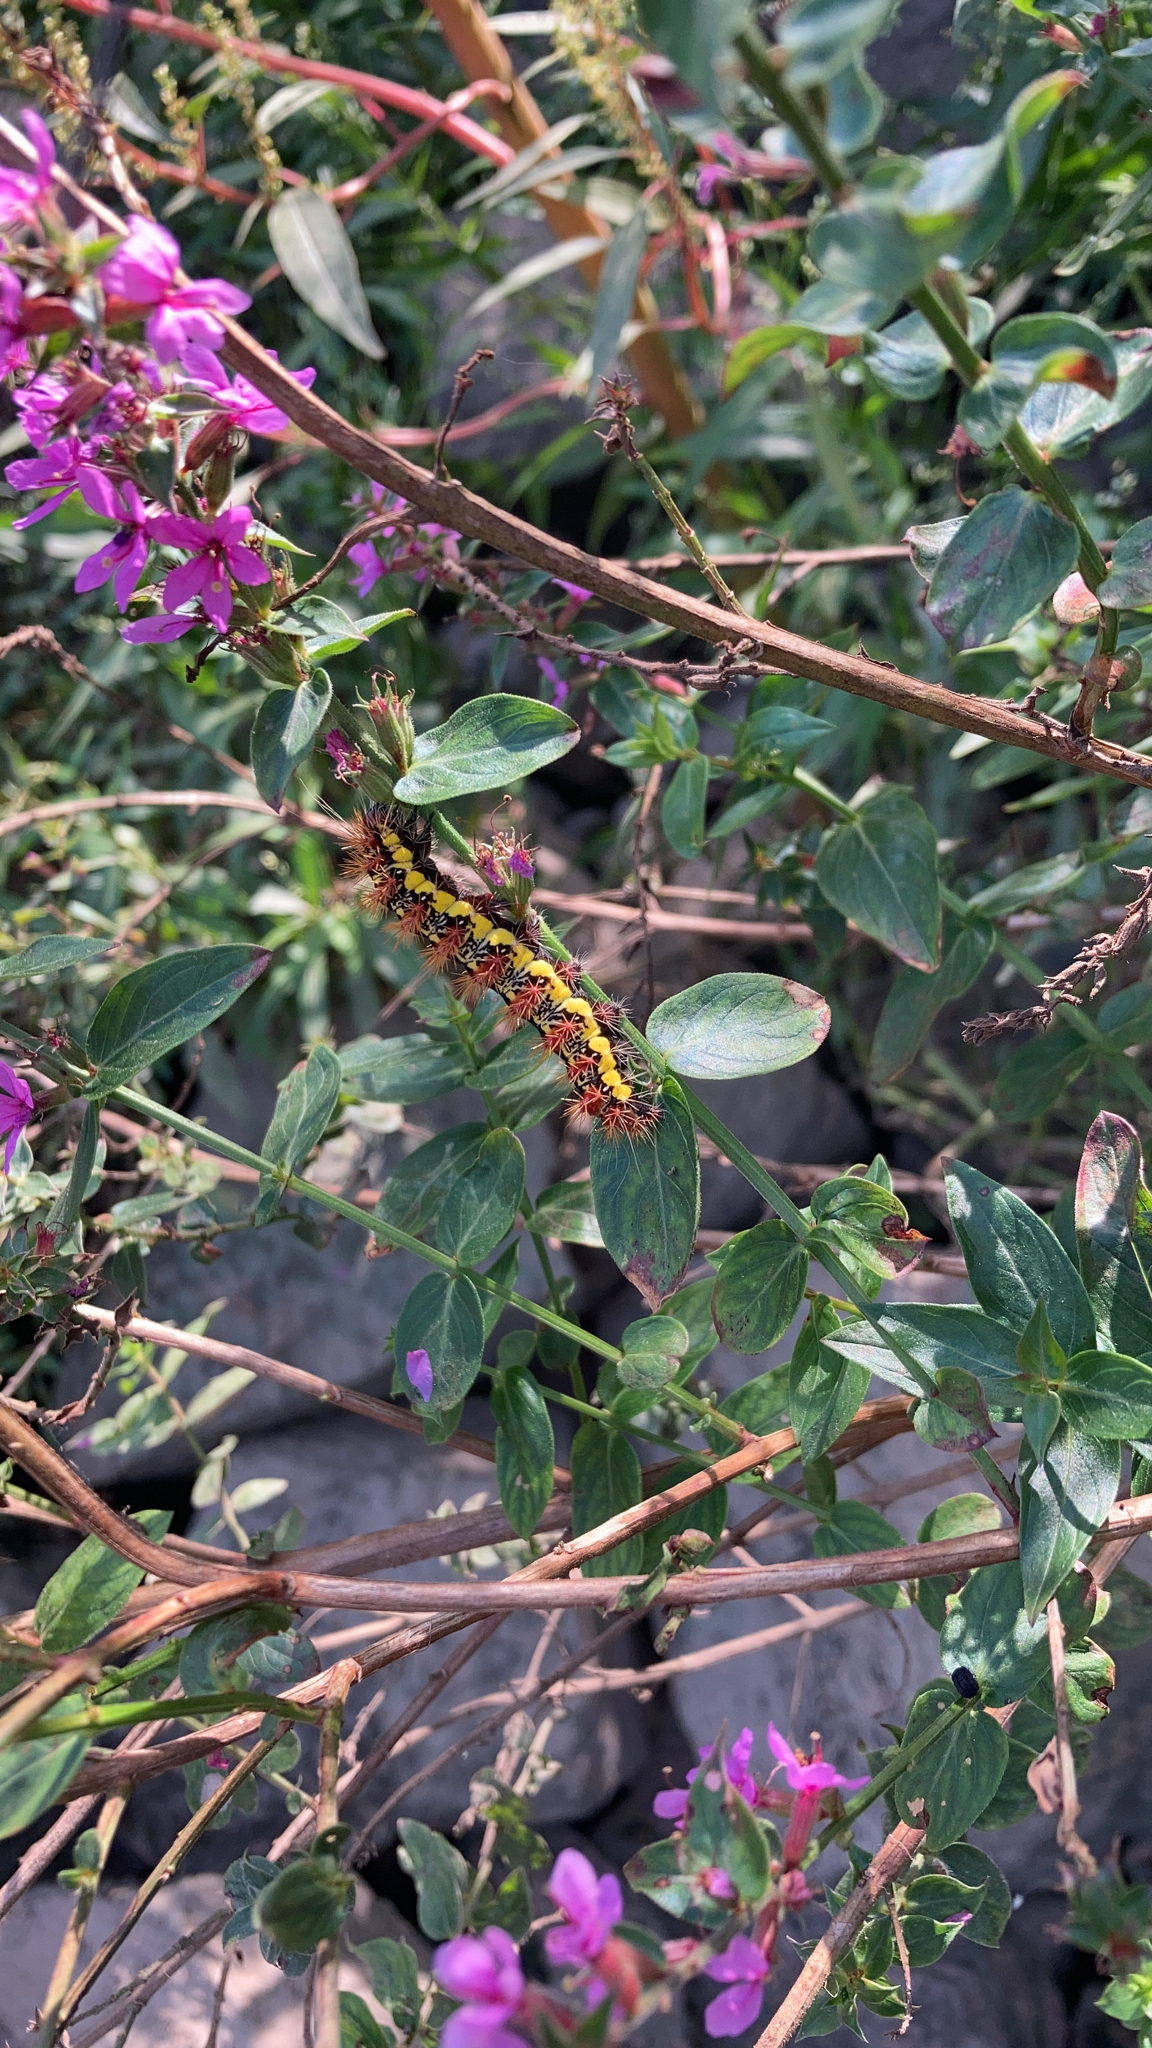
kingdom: Animalia
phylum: Arthropoda
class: Insecta
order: Lepidoptera
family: Noctuidae
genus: Acronicta
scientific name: Acronicta oblinita
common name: Smeared dagger
